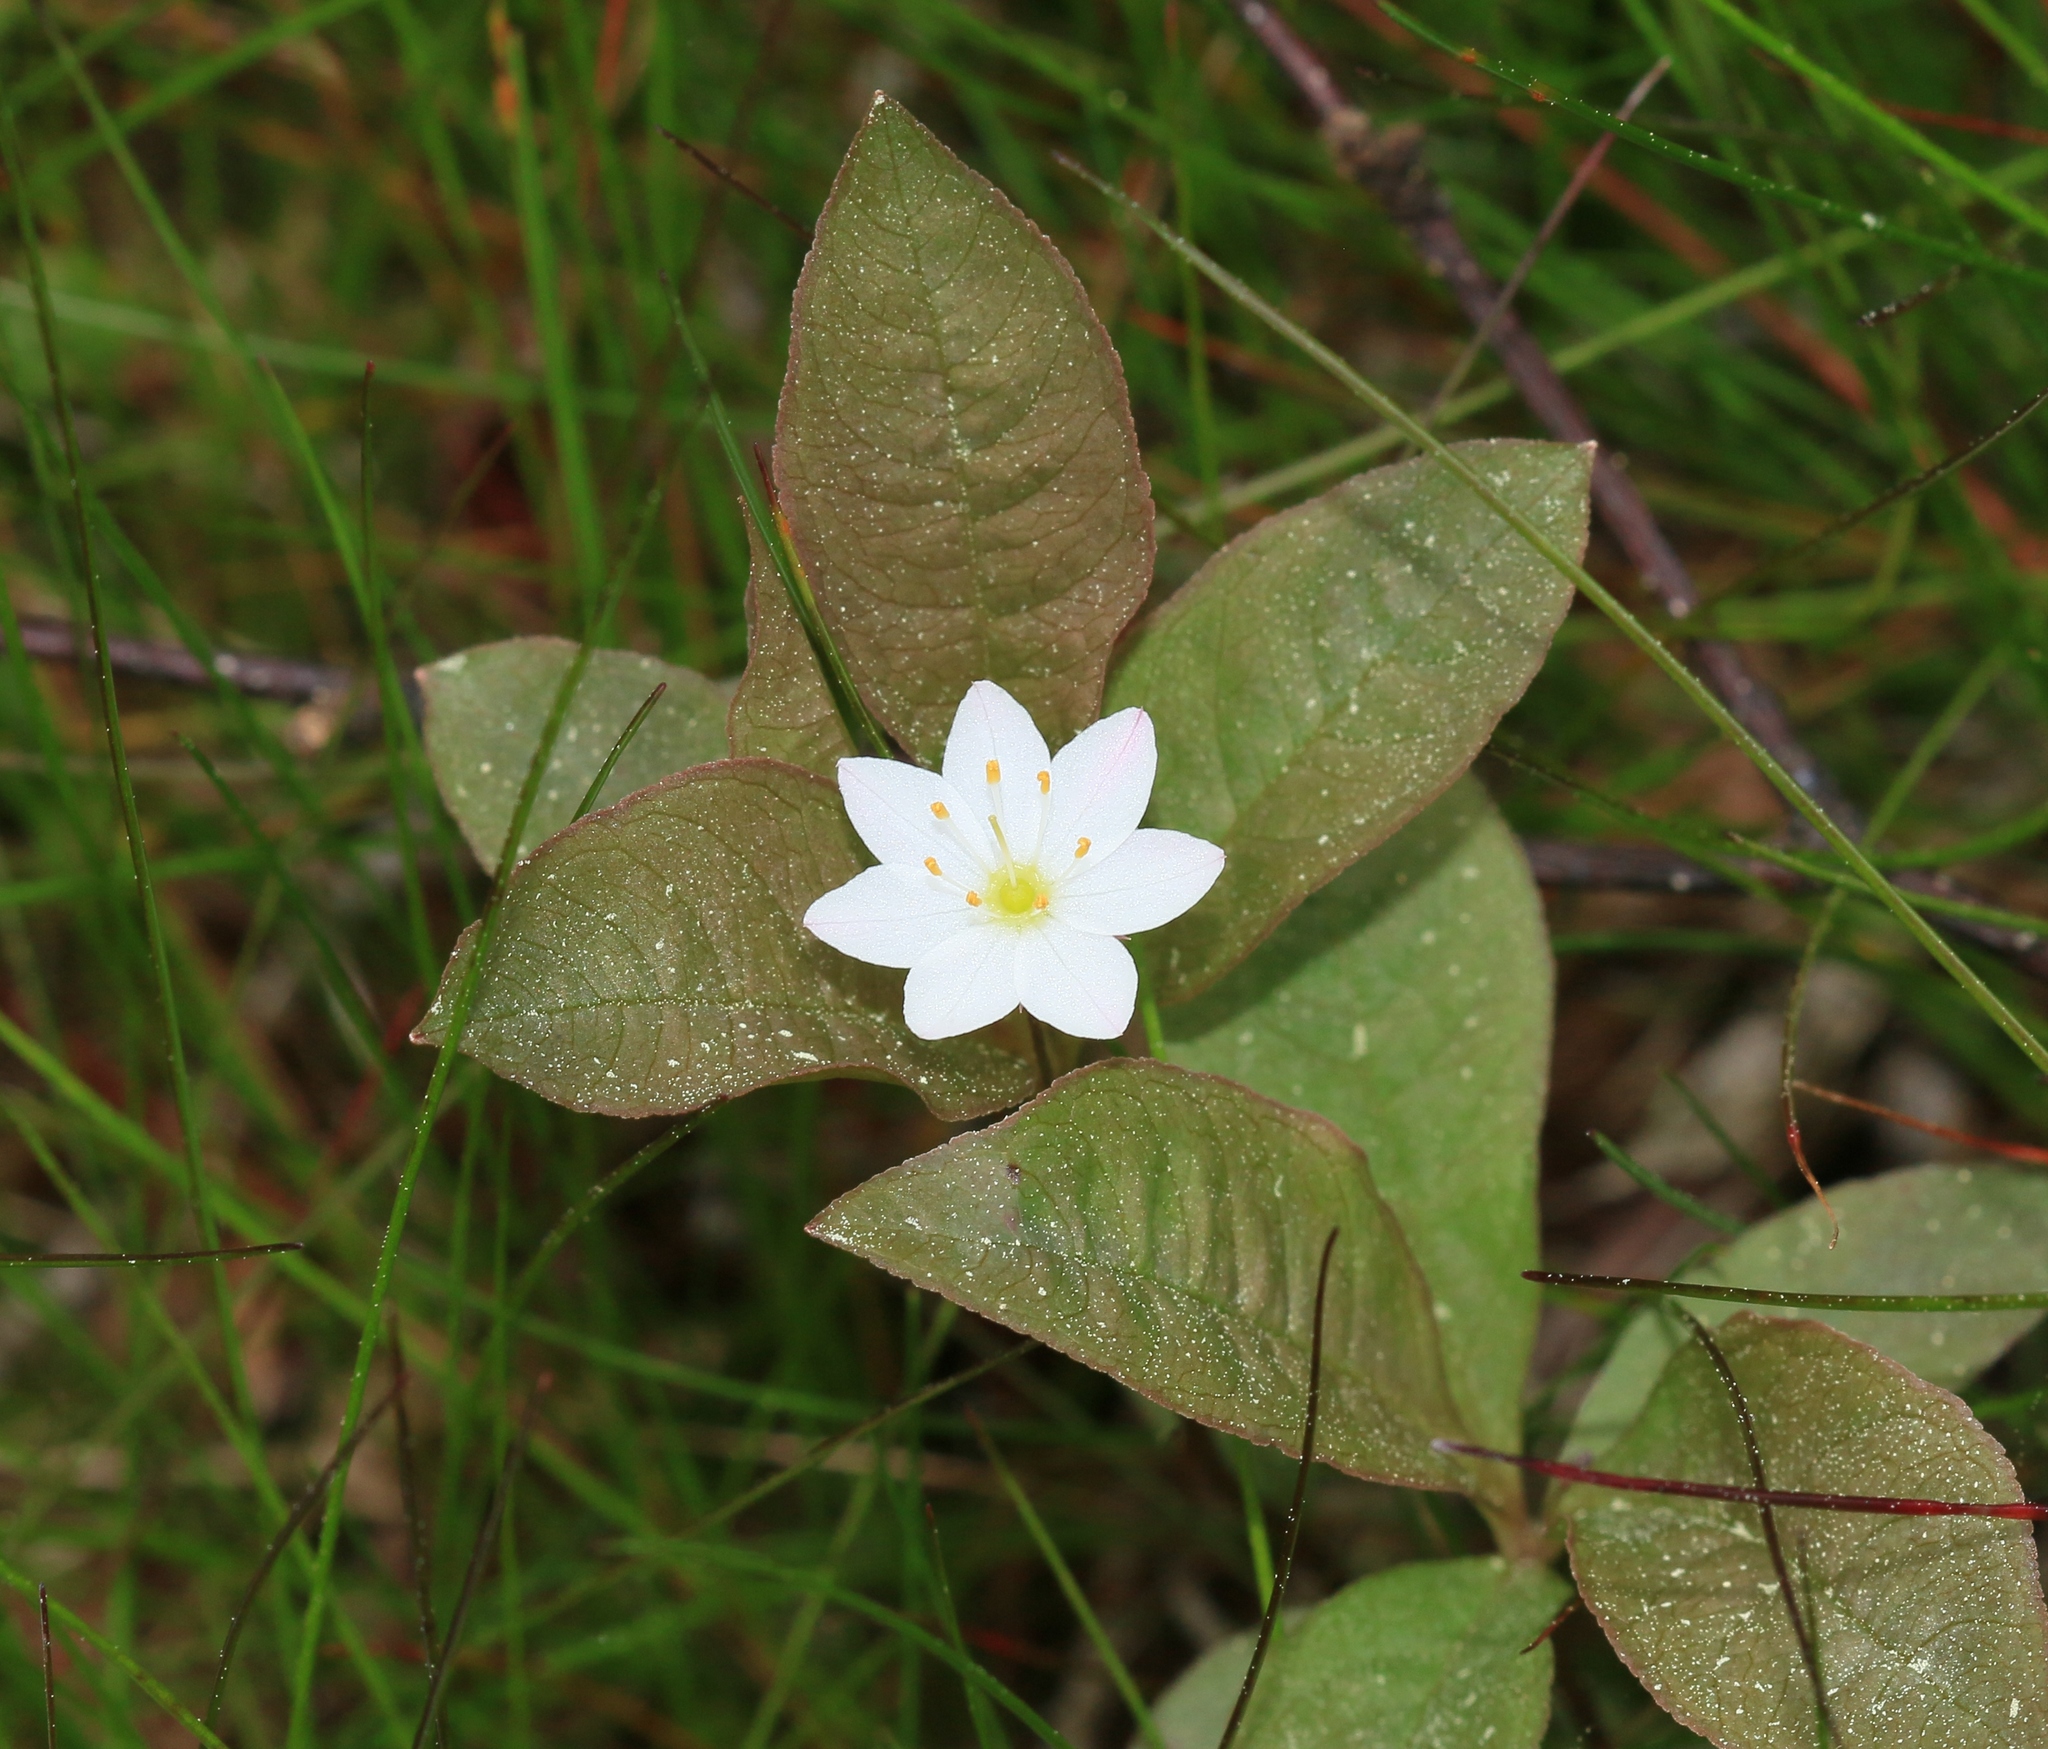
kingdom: Plantae
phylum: Tracheophyta
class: Magnoliopsida
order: Ericales
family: Primulaceae
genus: Lysimachia
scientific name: Lysimachia europaea
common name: Arctic starflower
